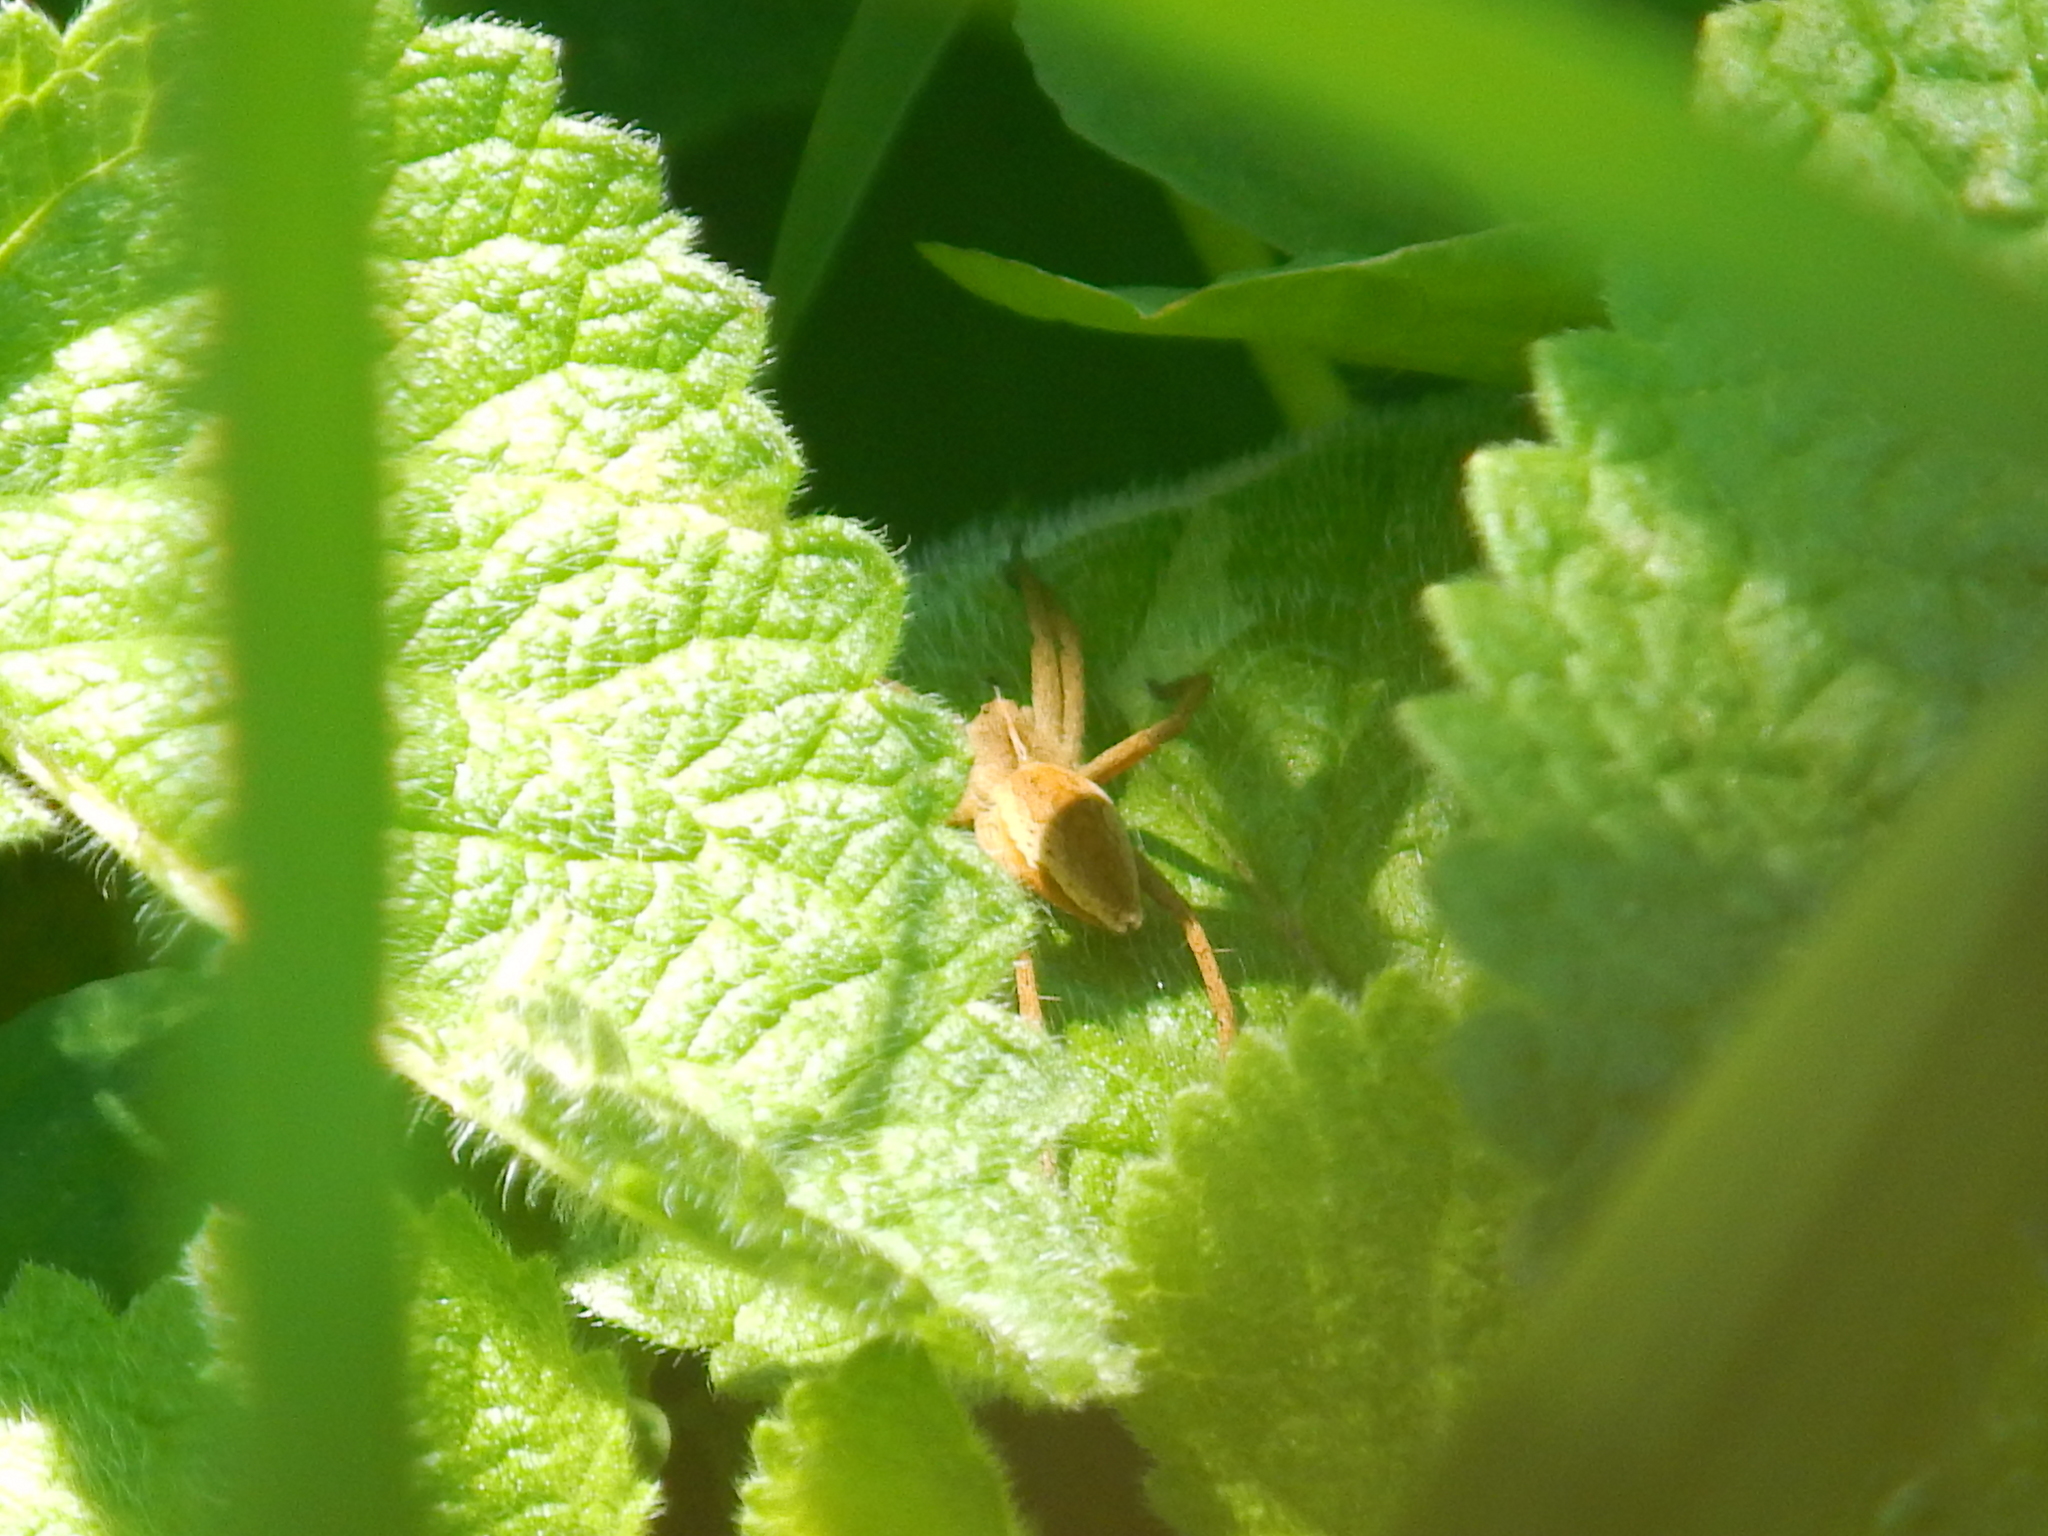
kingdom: Animalia
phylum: Arthropoda
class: Arachnida
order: Araneae
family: Pisauridae
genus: Pisaura
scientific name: Pisaura mirabilis
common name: Tent spider
